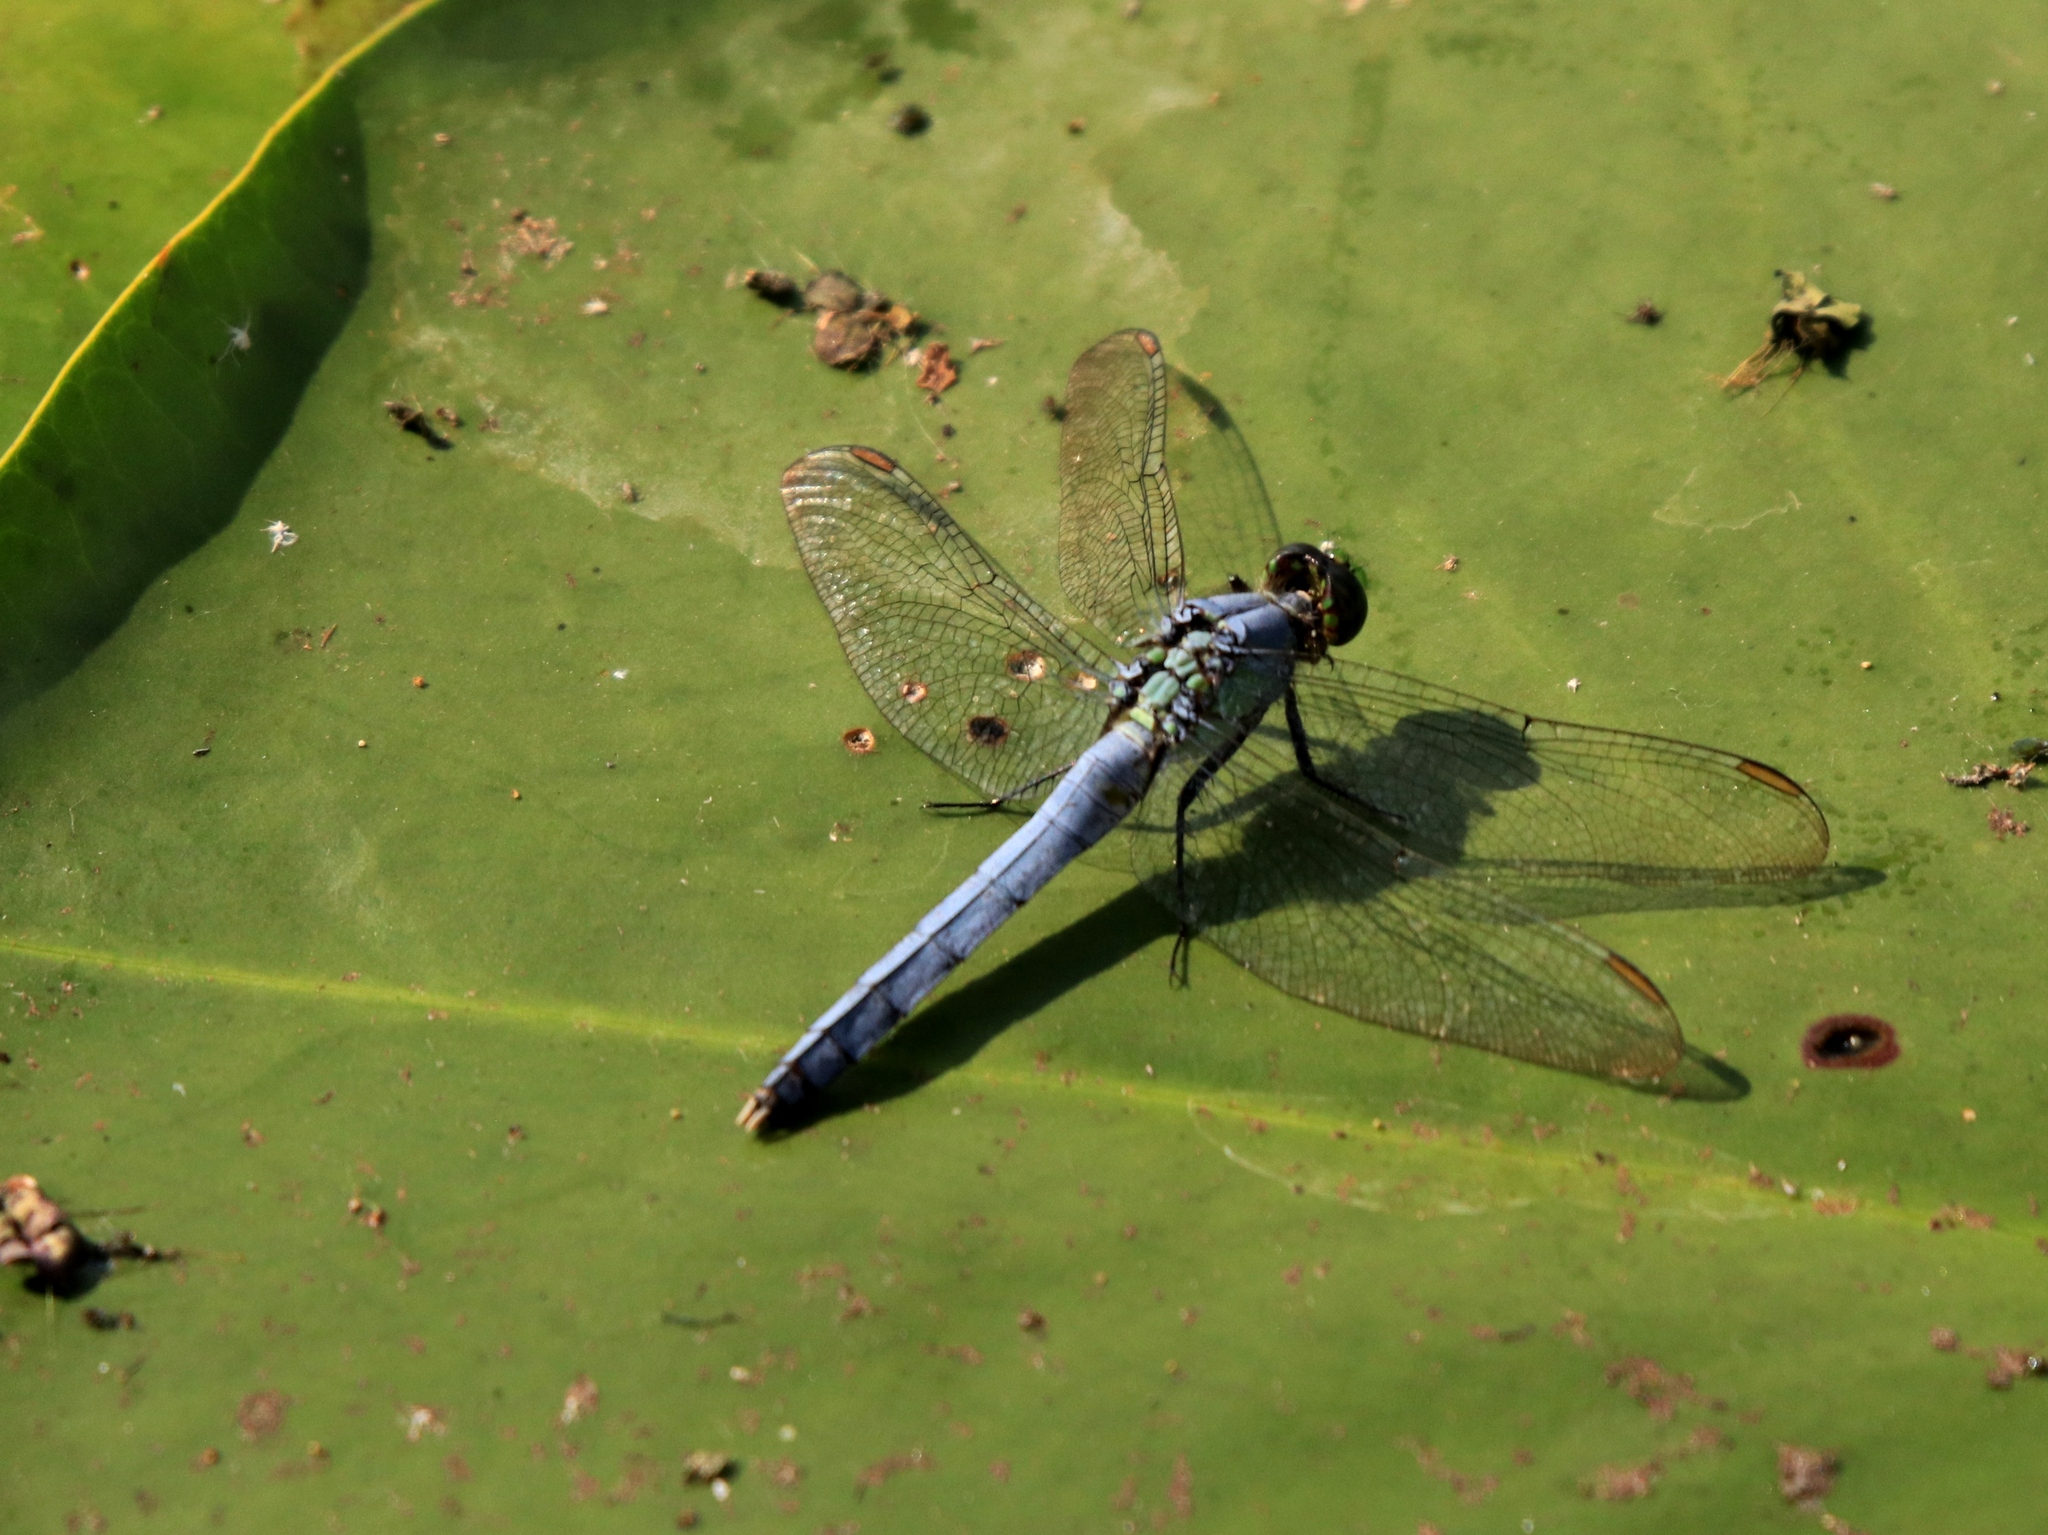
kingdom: Animalia
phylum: Arthropoda
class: Insecta
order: Odonata
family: Libellulidae
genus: Erythemis
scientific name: Erythemis simplicicollis
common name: Eastern pondhawk
